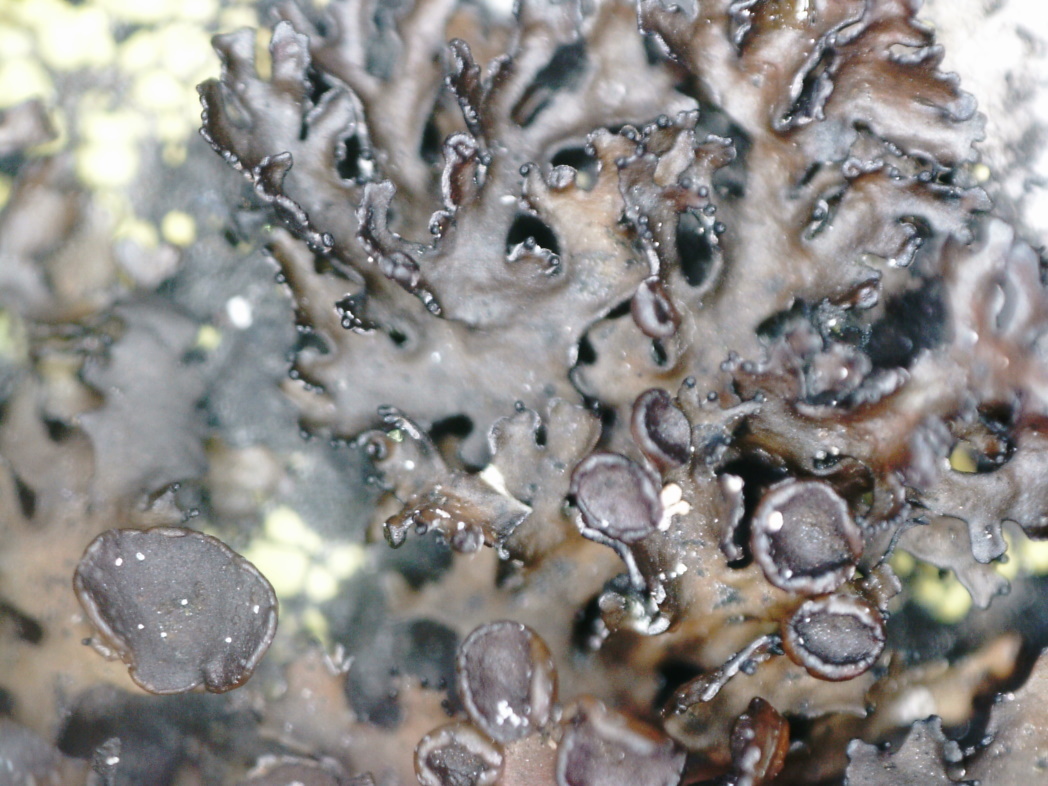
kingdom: Fungi
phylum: Ascomycota
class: Lecanoromycetes
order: Lecanorales
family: Parmeliaceae
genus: Melanelia
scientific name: Melanelia commixta
